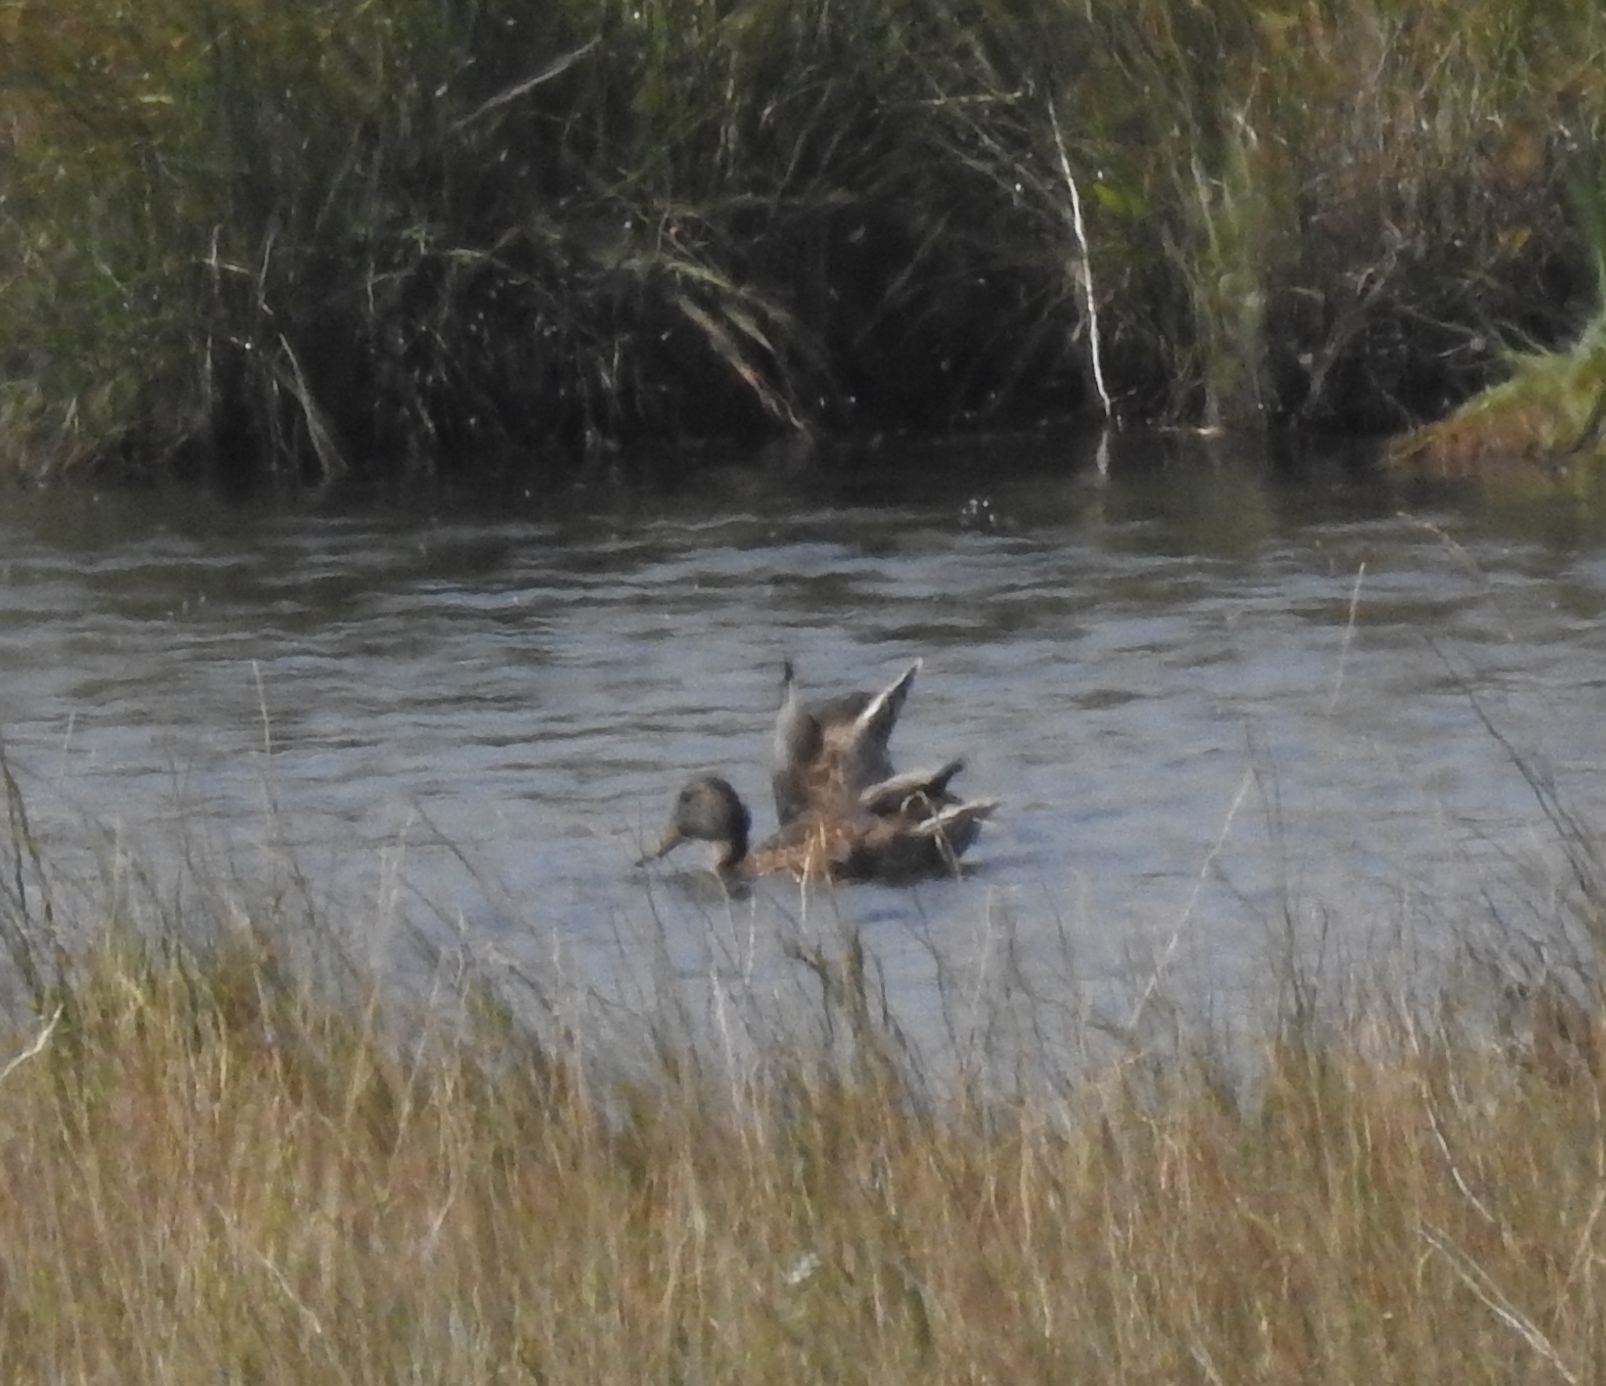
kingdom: Animalia
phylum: Chordata
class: Aves
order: Anseriformes
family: Anatidae
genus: Anas
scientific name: Anas platyrhynchos
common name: Mallard
